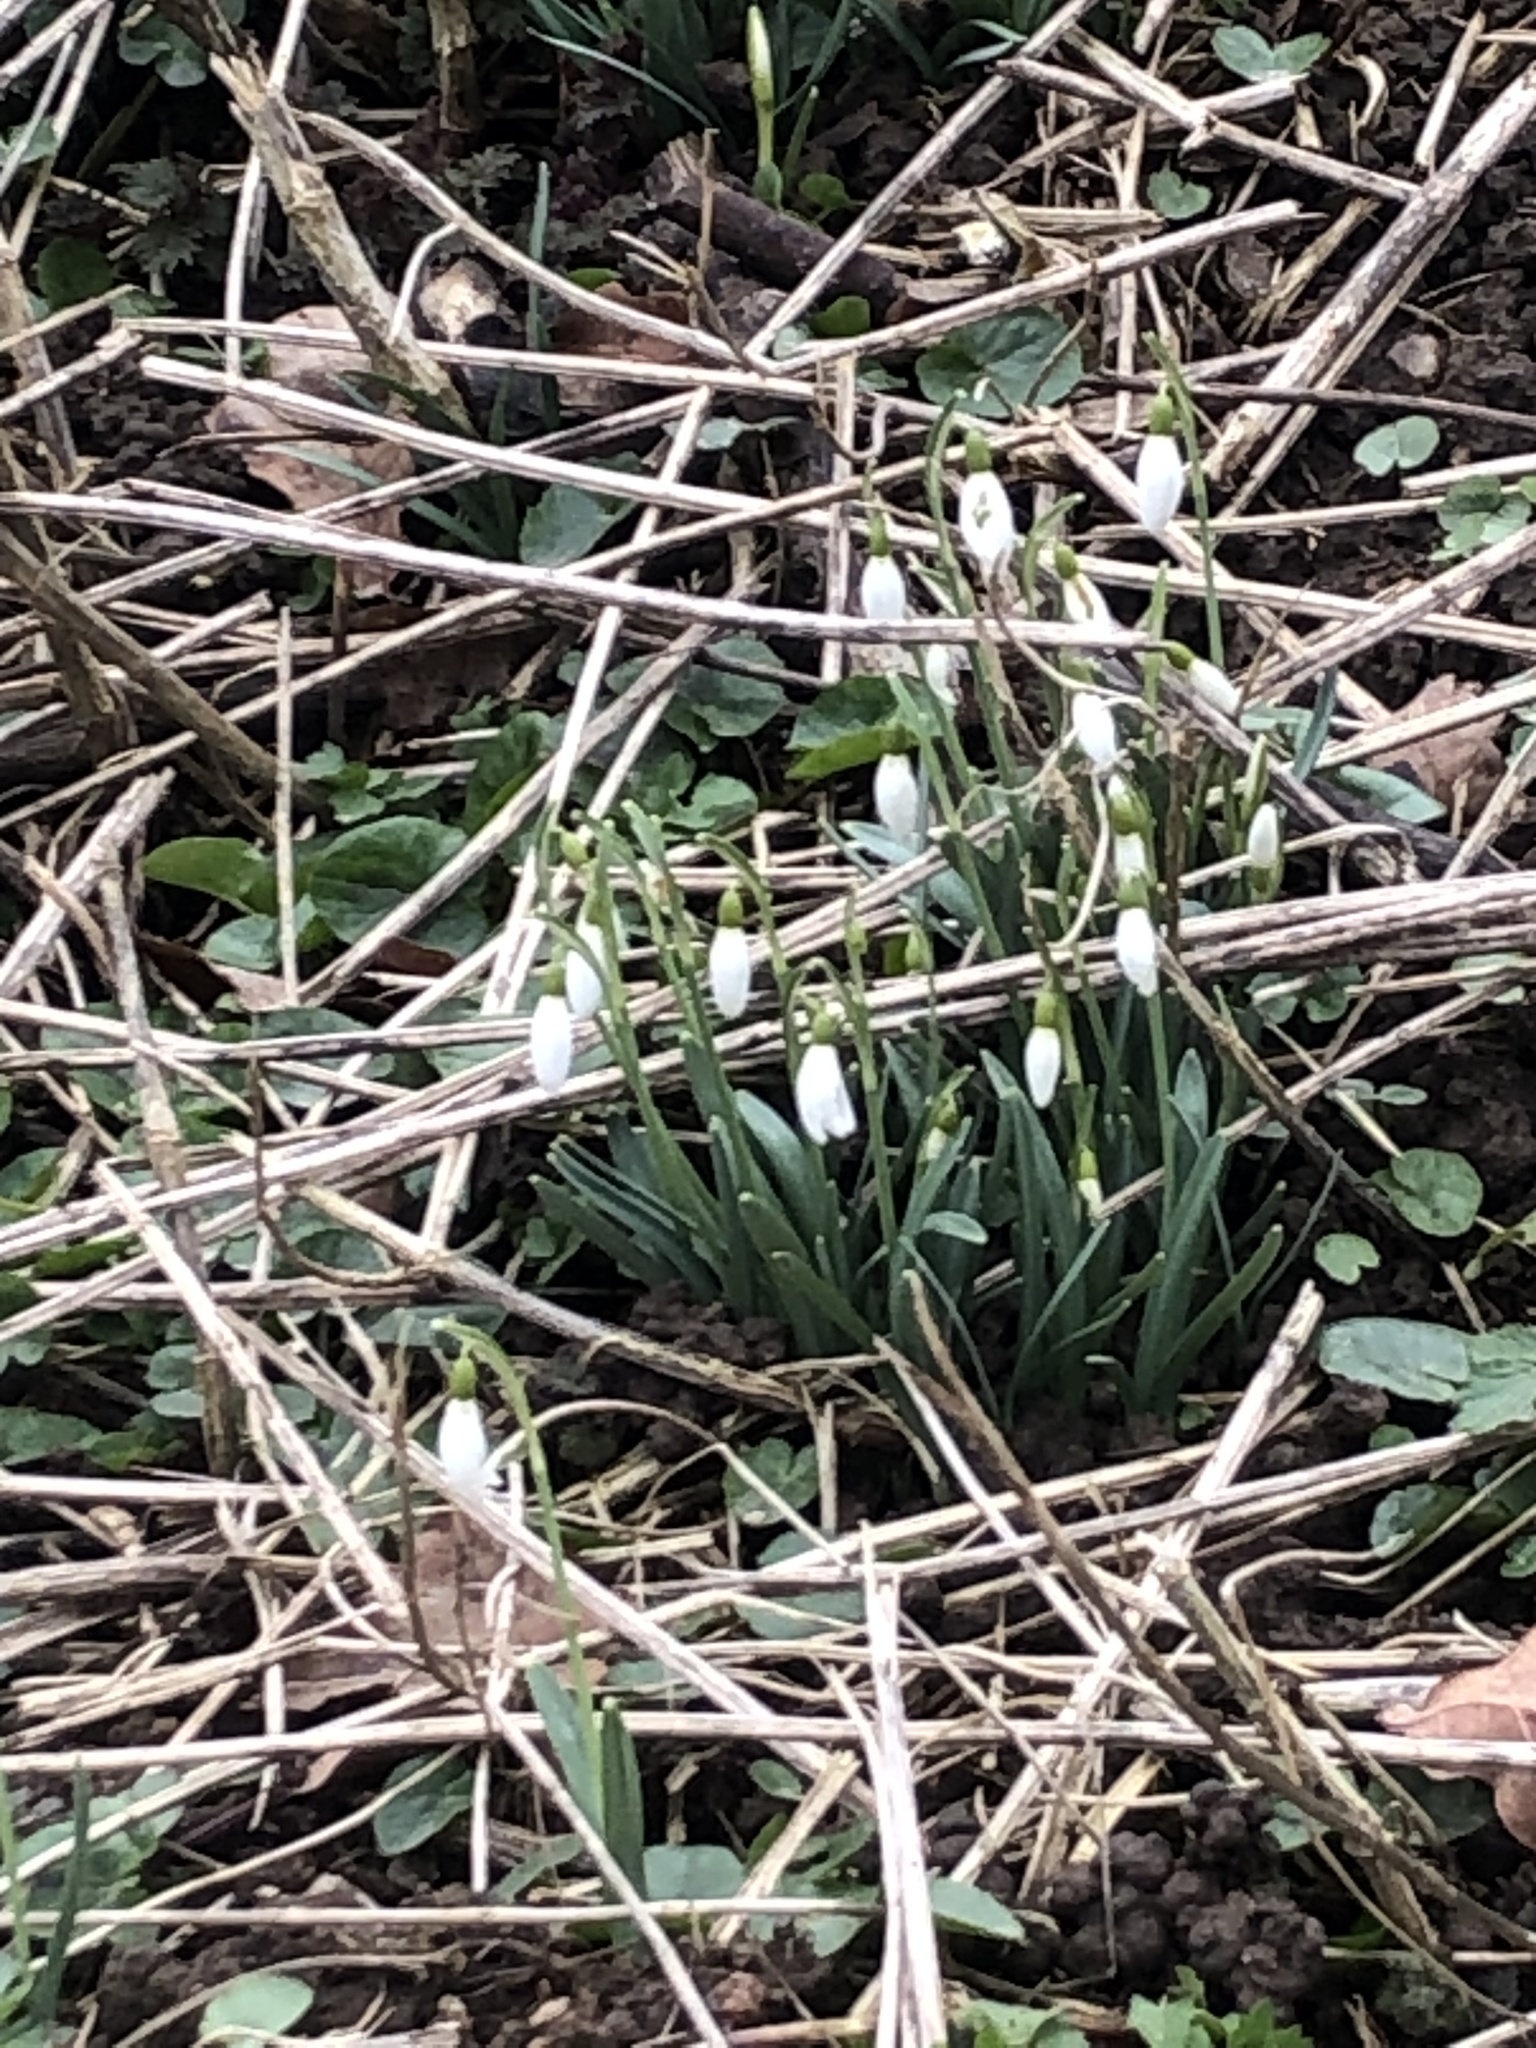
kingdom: Plantae
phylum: Tracheophyta
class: Liliopsida
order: Asparagales
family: Amaryllidaceae
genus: Galanthus
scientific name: Galanthus nivalis
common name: Snowdrop
